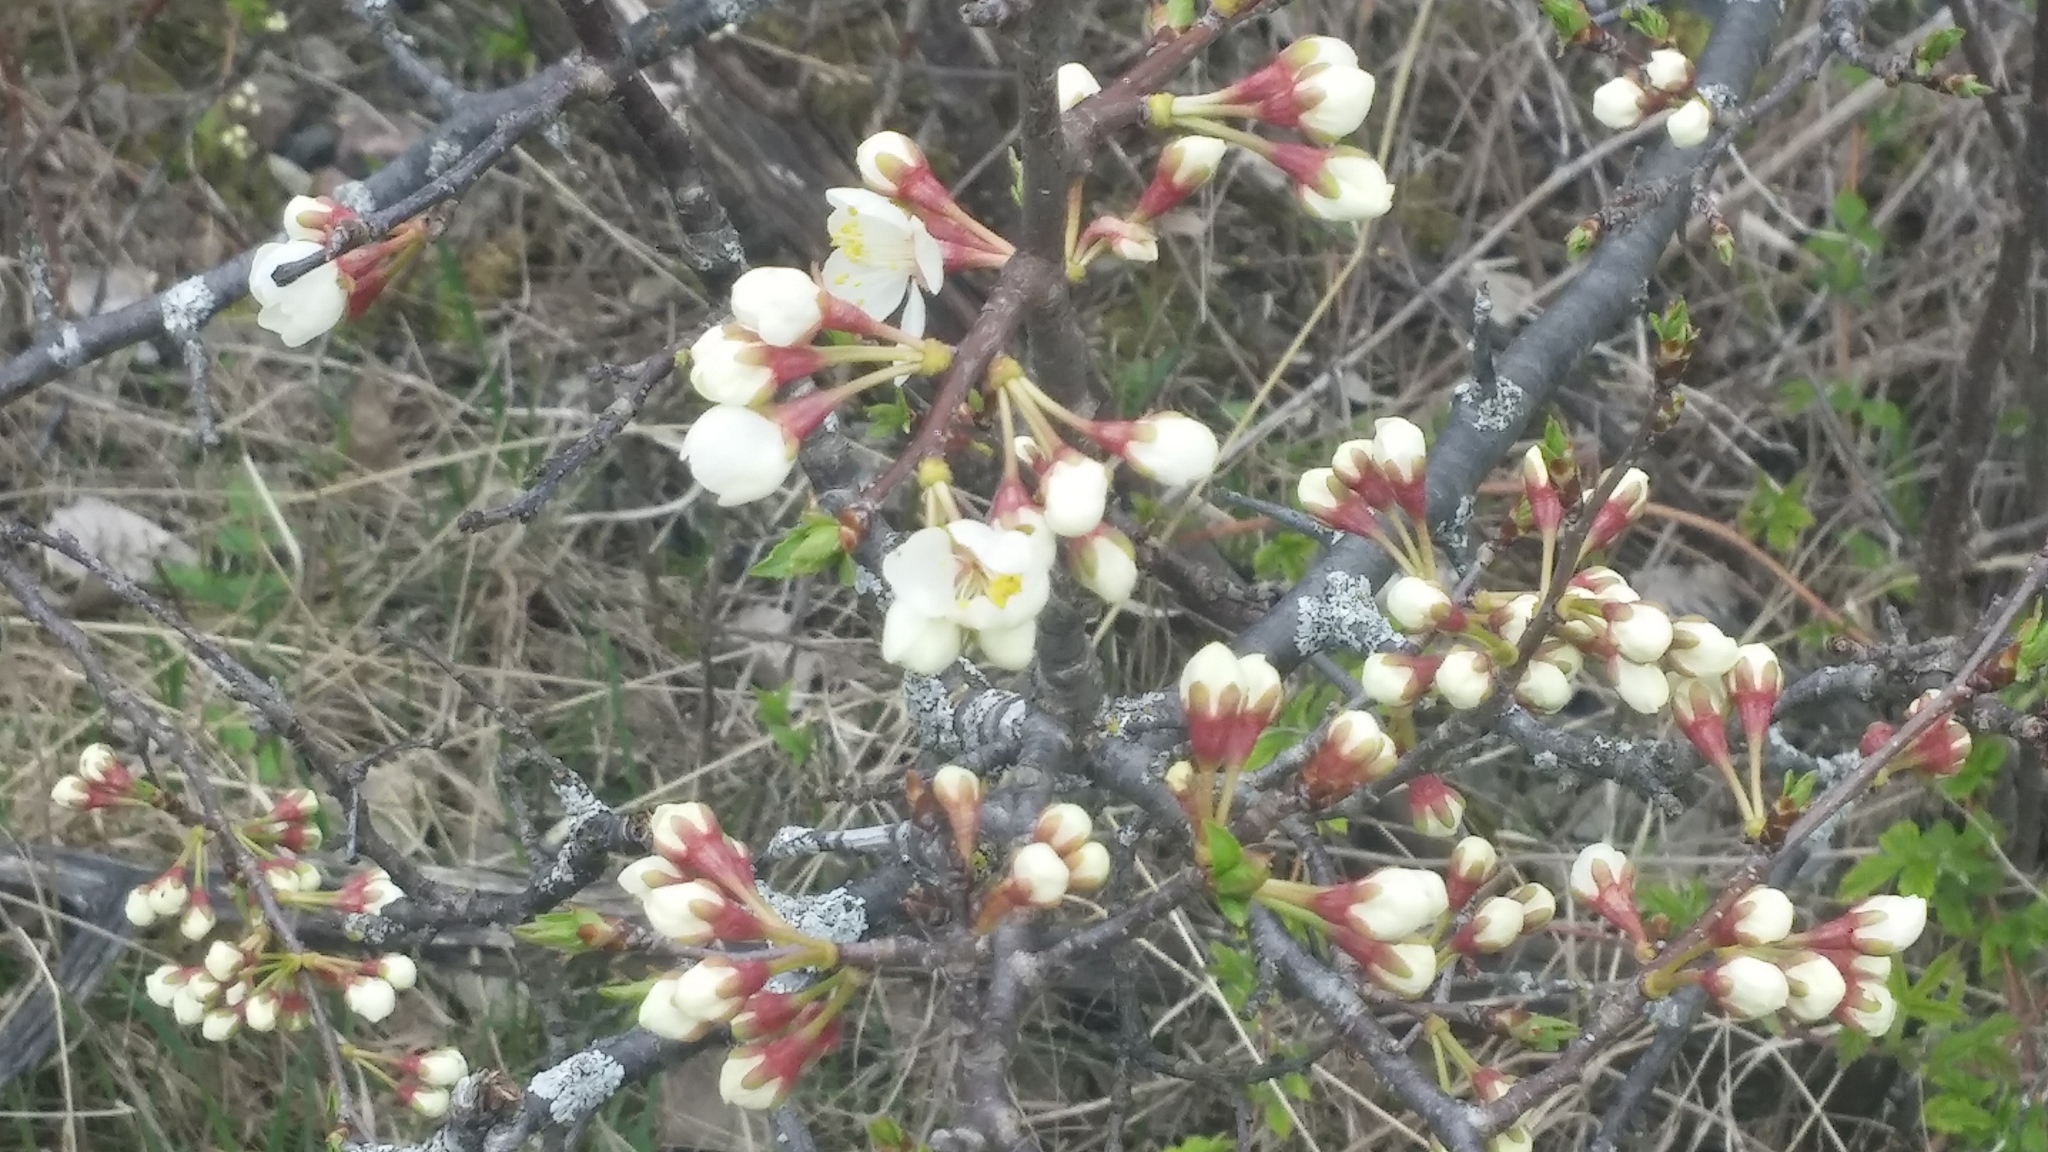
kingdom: Plantae
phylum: Tracheophyta
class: Magnoliopsida
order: Rosales
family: Rosaceae
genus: Prunus
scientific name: Prunus nigra
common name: Black plum
